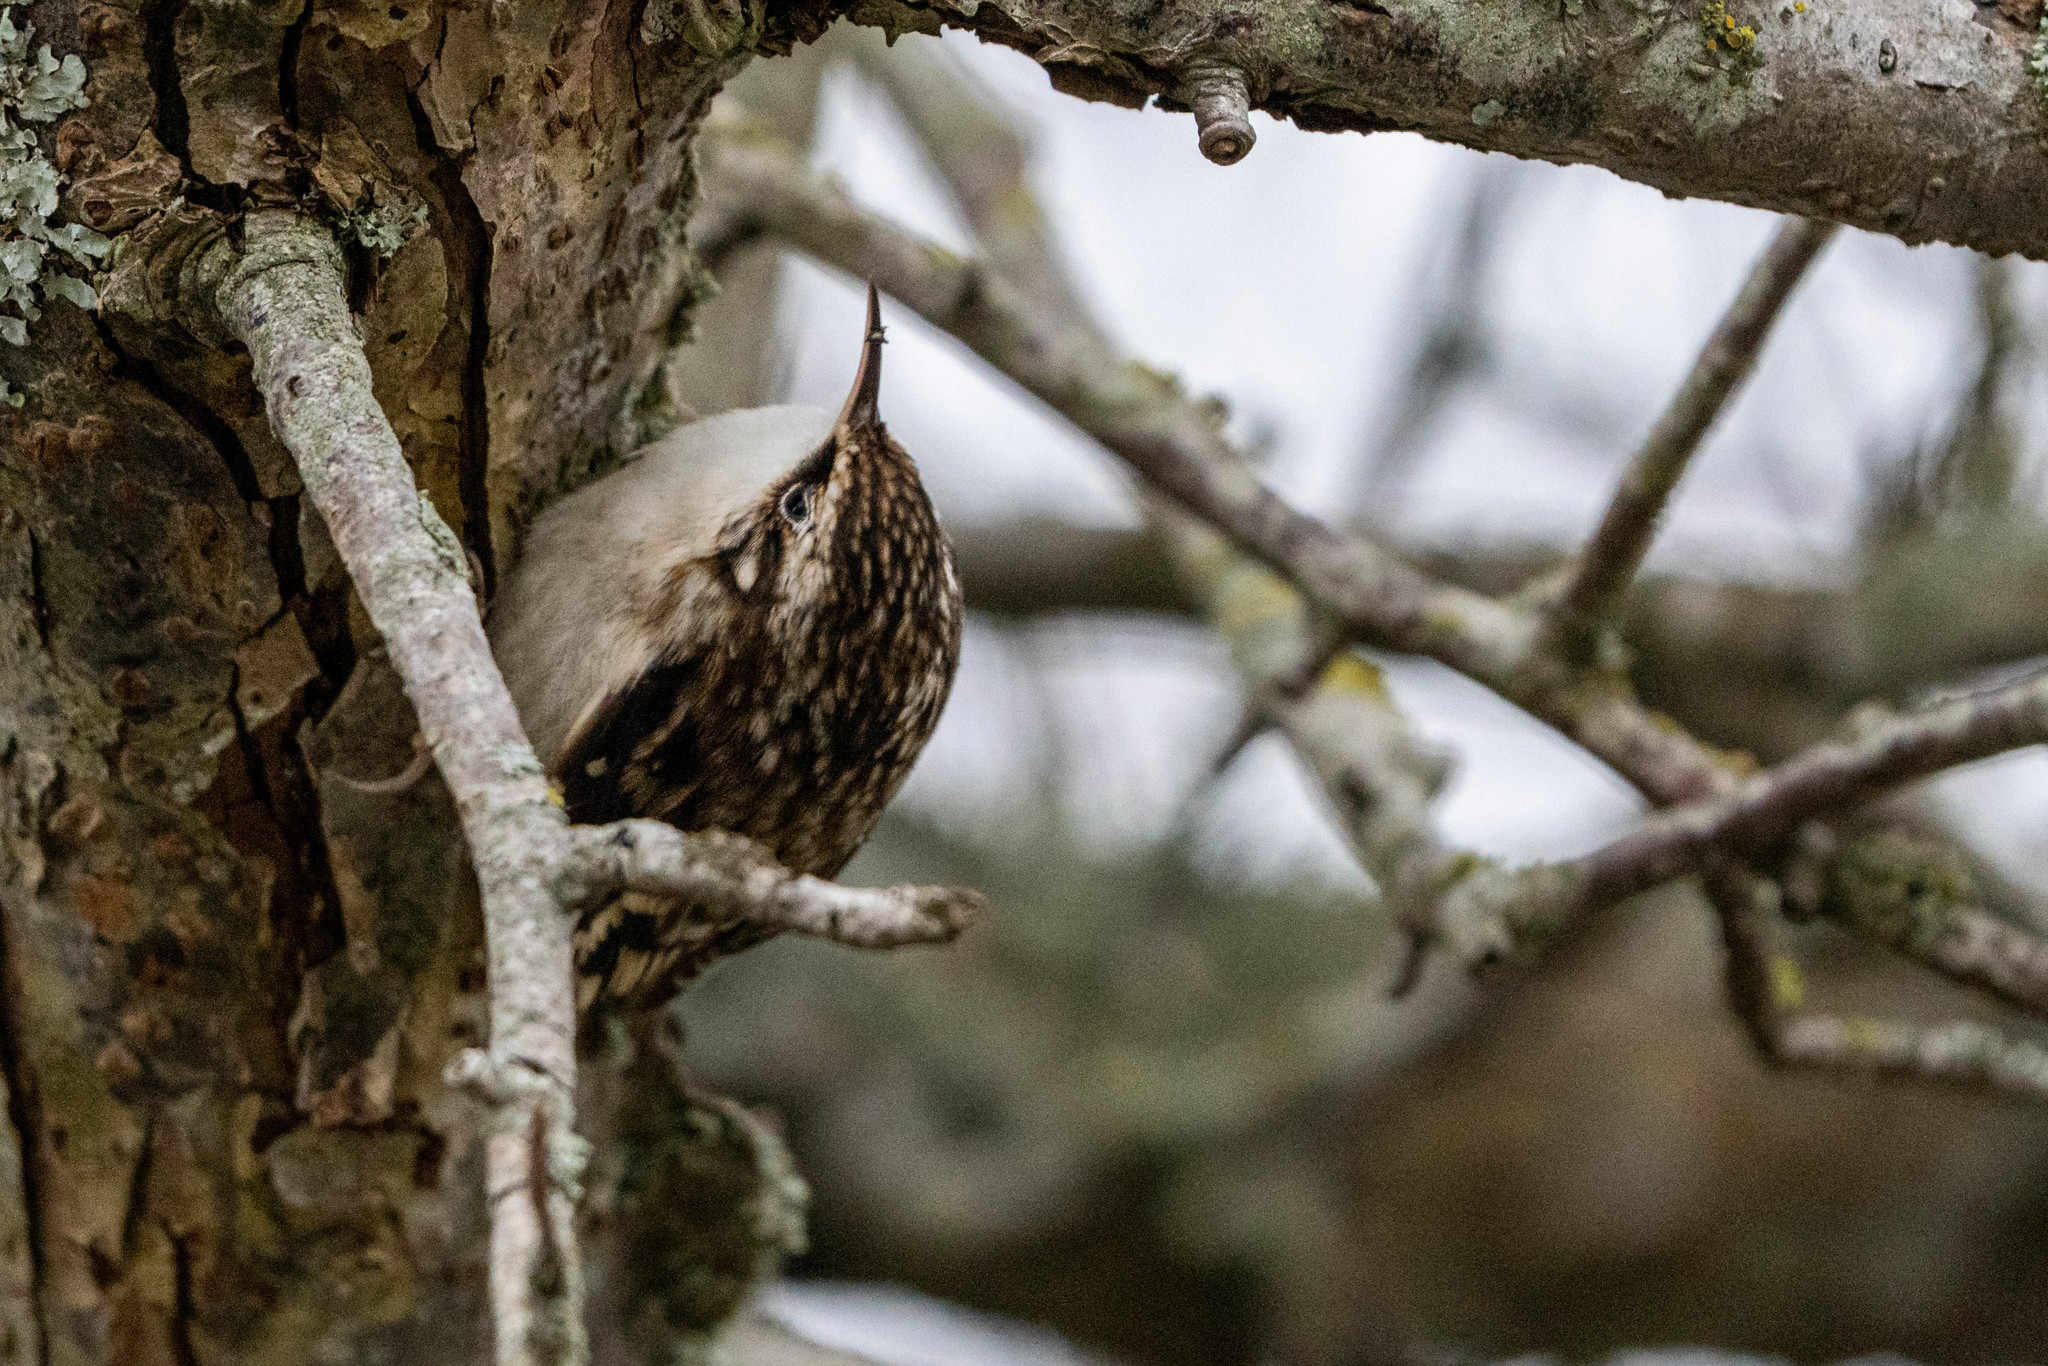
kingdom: Animalia
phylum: Chordata
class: Aves
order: Passeriformes
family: Certhiidae
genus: Certhia
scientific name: Certhia americana
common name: Brown creeper
